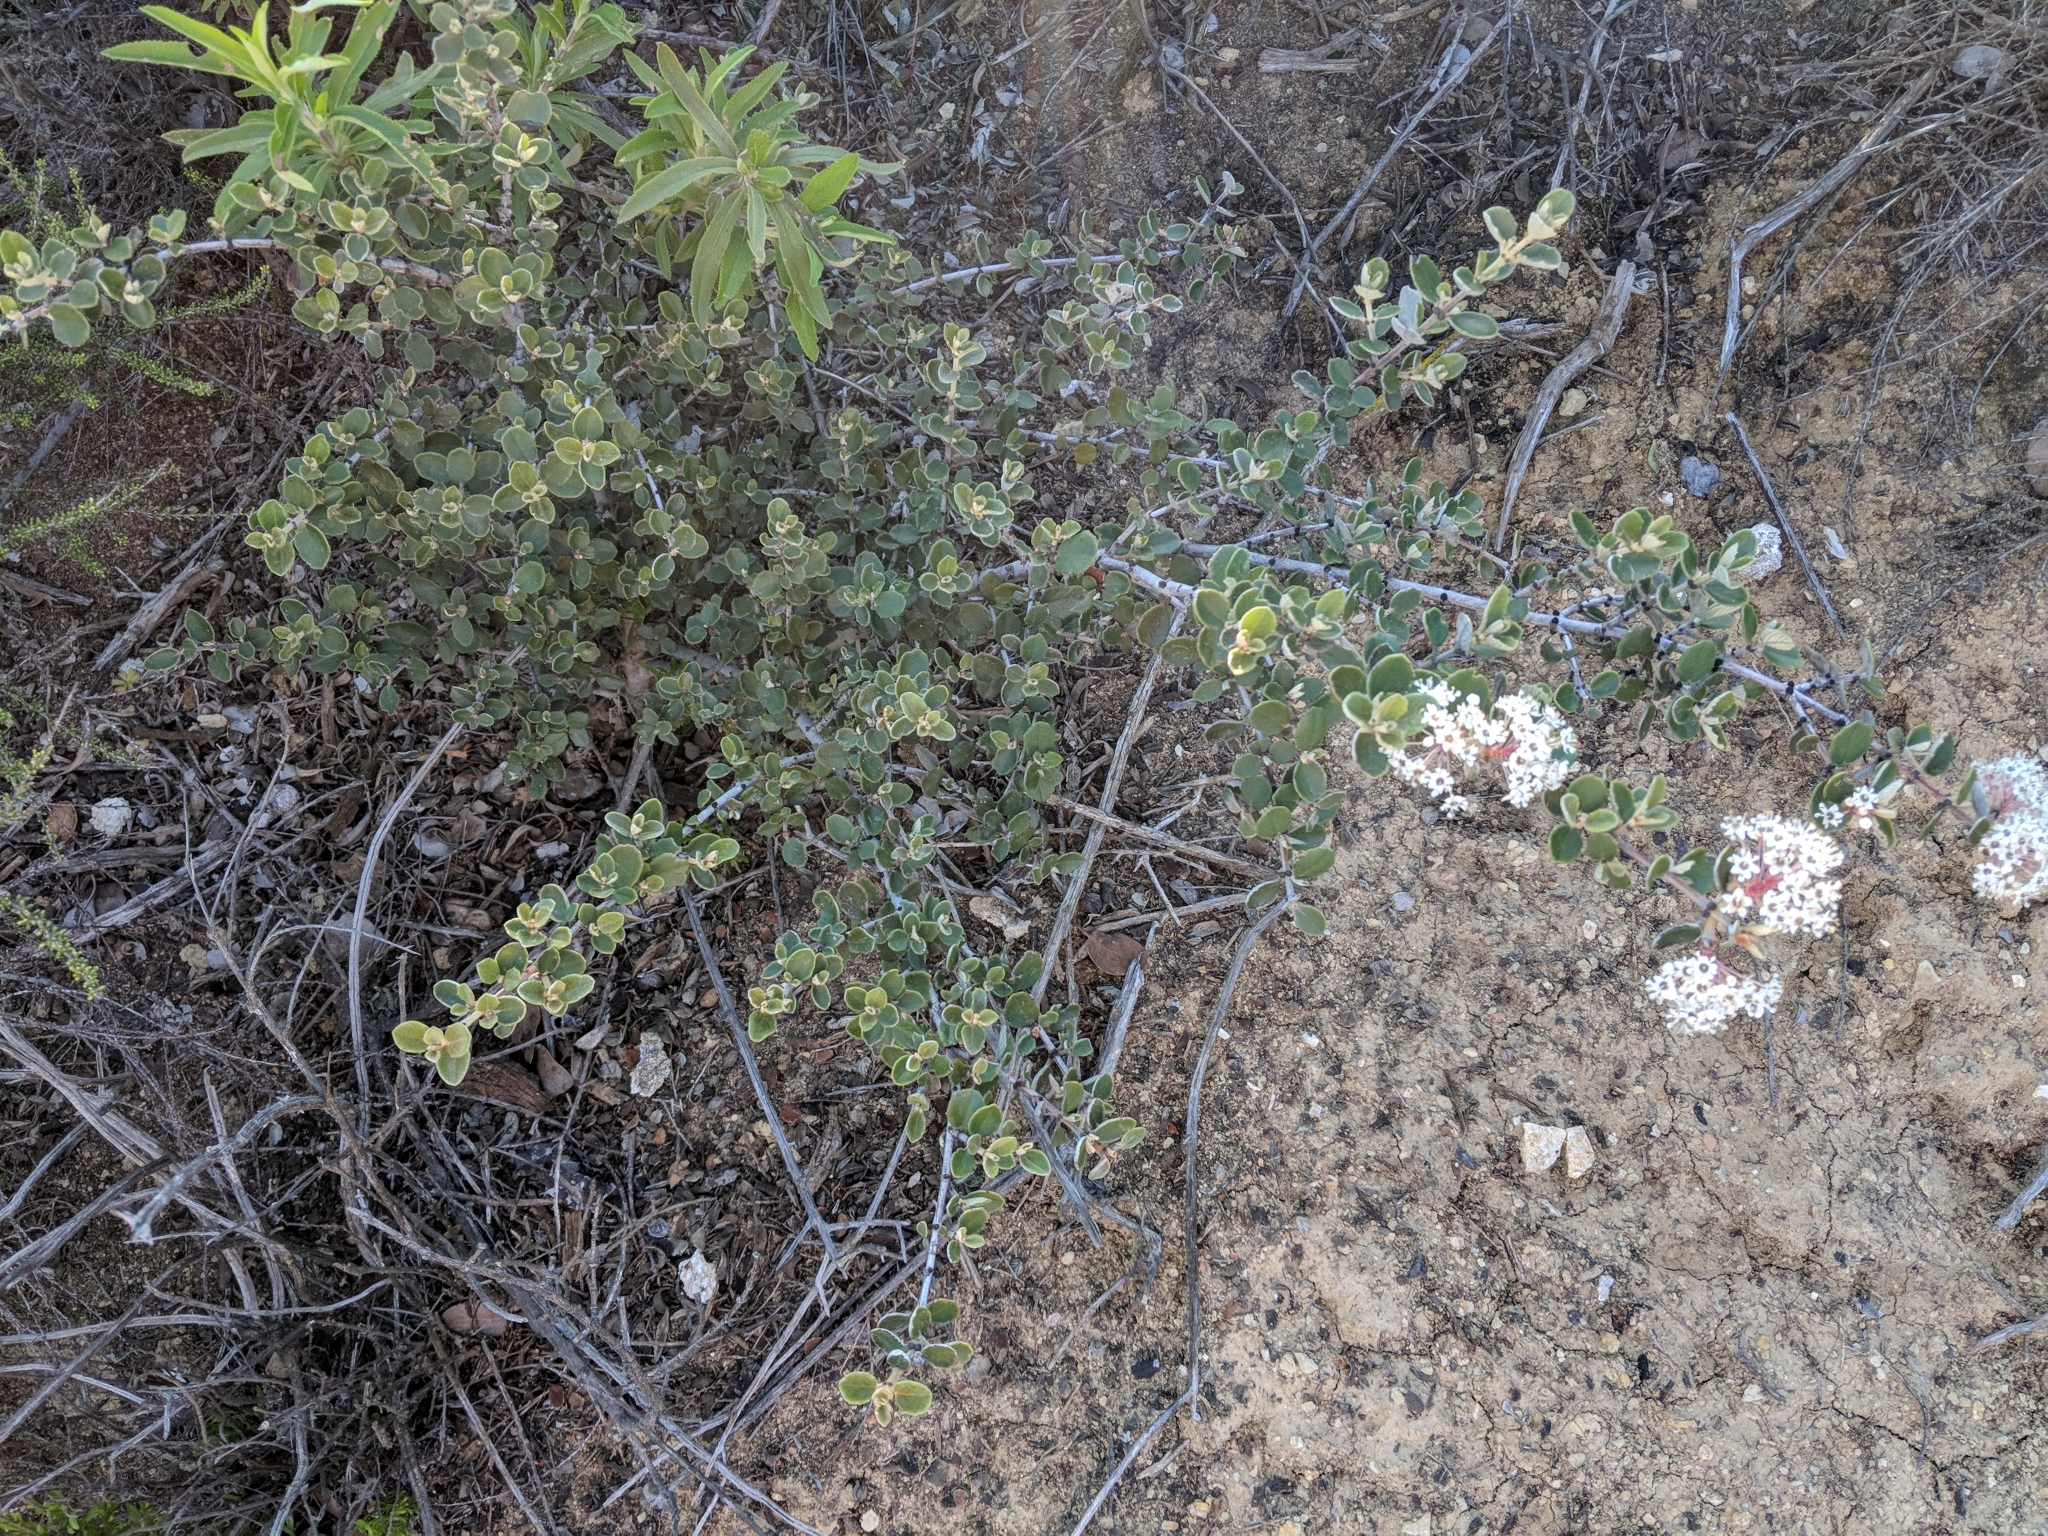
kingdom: Plantae
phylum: Tracheophyta
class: Magnoliopsida
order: Rosales
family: Rhamnaceae
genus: Ceanothus
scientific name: Ceanothus crassifolius
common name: Hoaryleaf ceanothus
